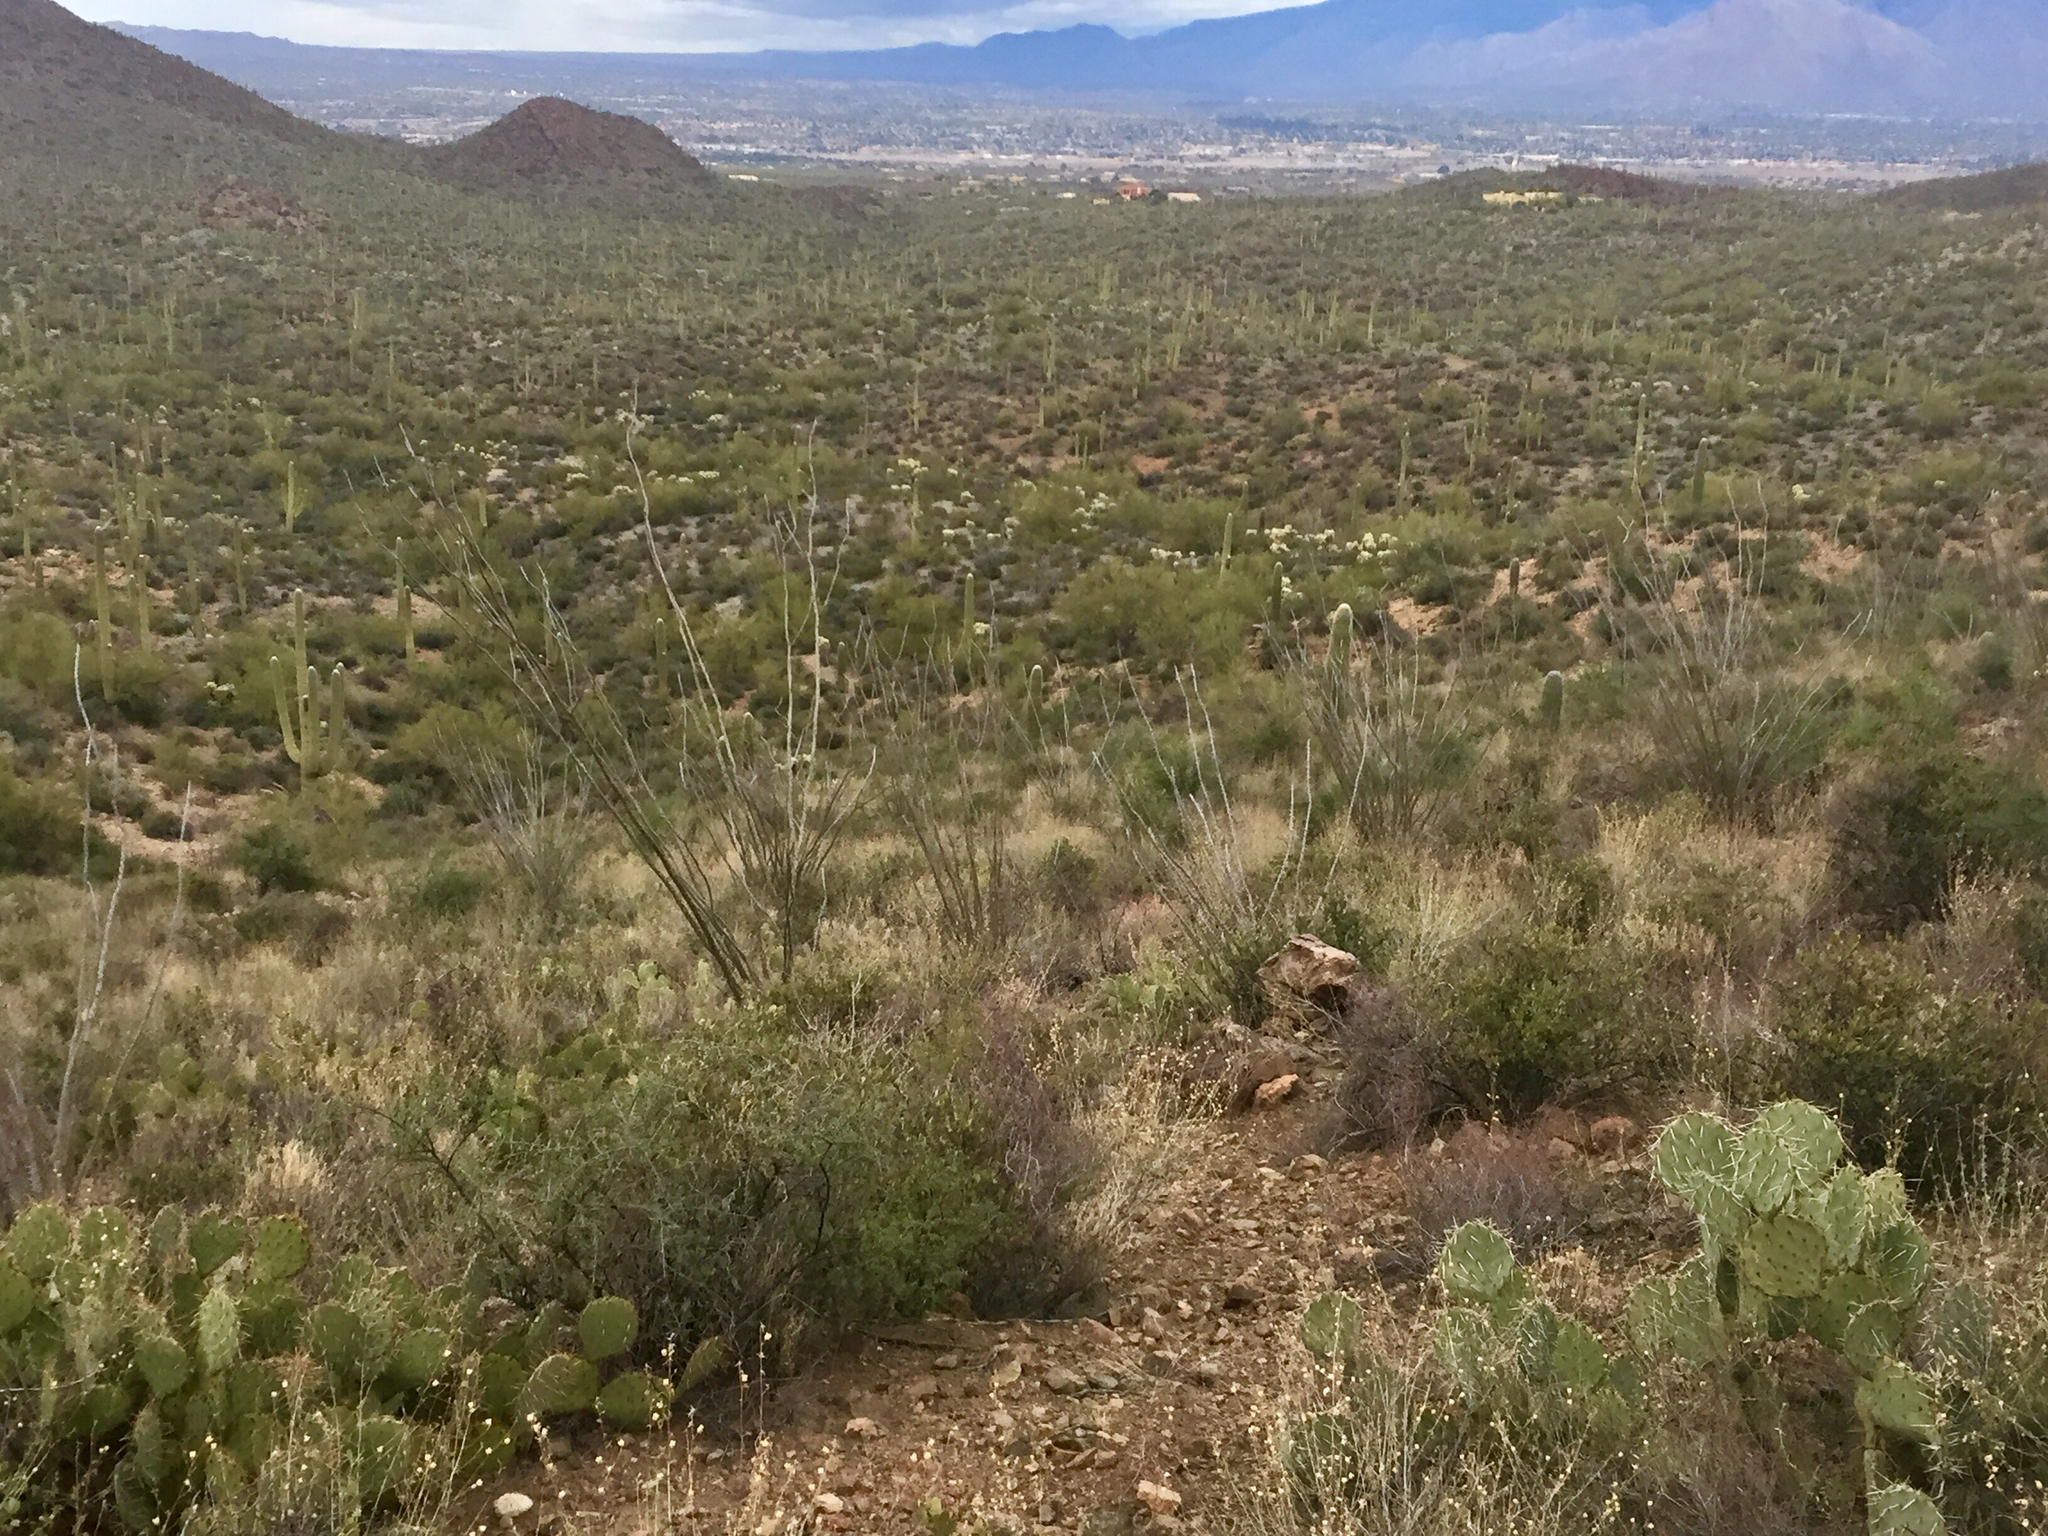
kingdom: Plantae
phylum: Tracheophyta
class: Magnoliopsida
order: Ericales
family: Fouquieriaceae
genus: Fouquieria
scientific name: Fouquieria splendens
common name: Vine-cactus
